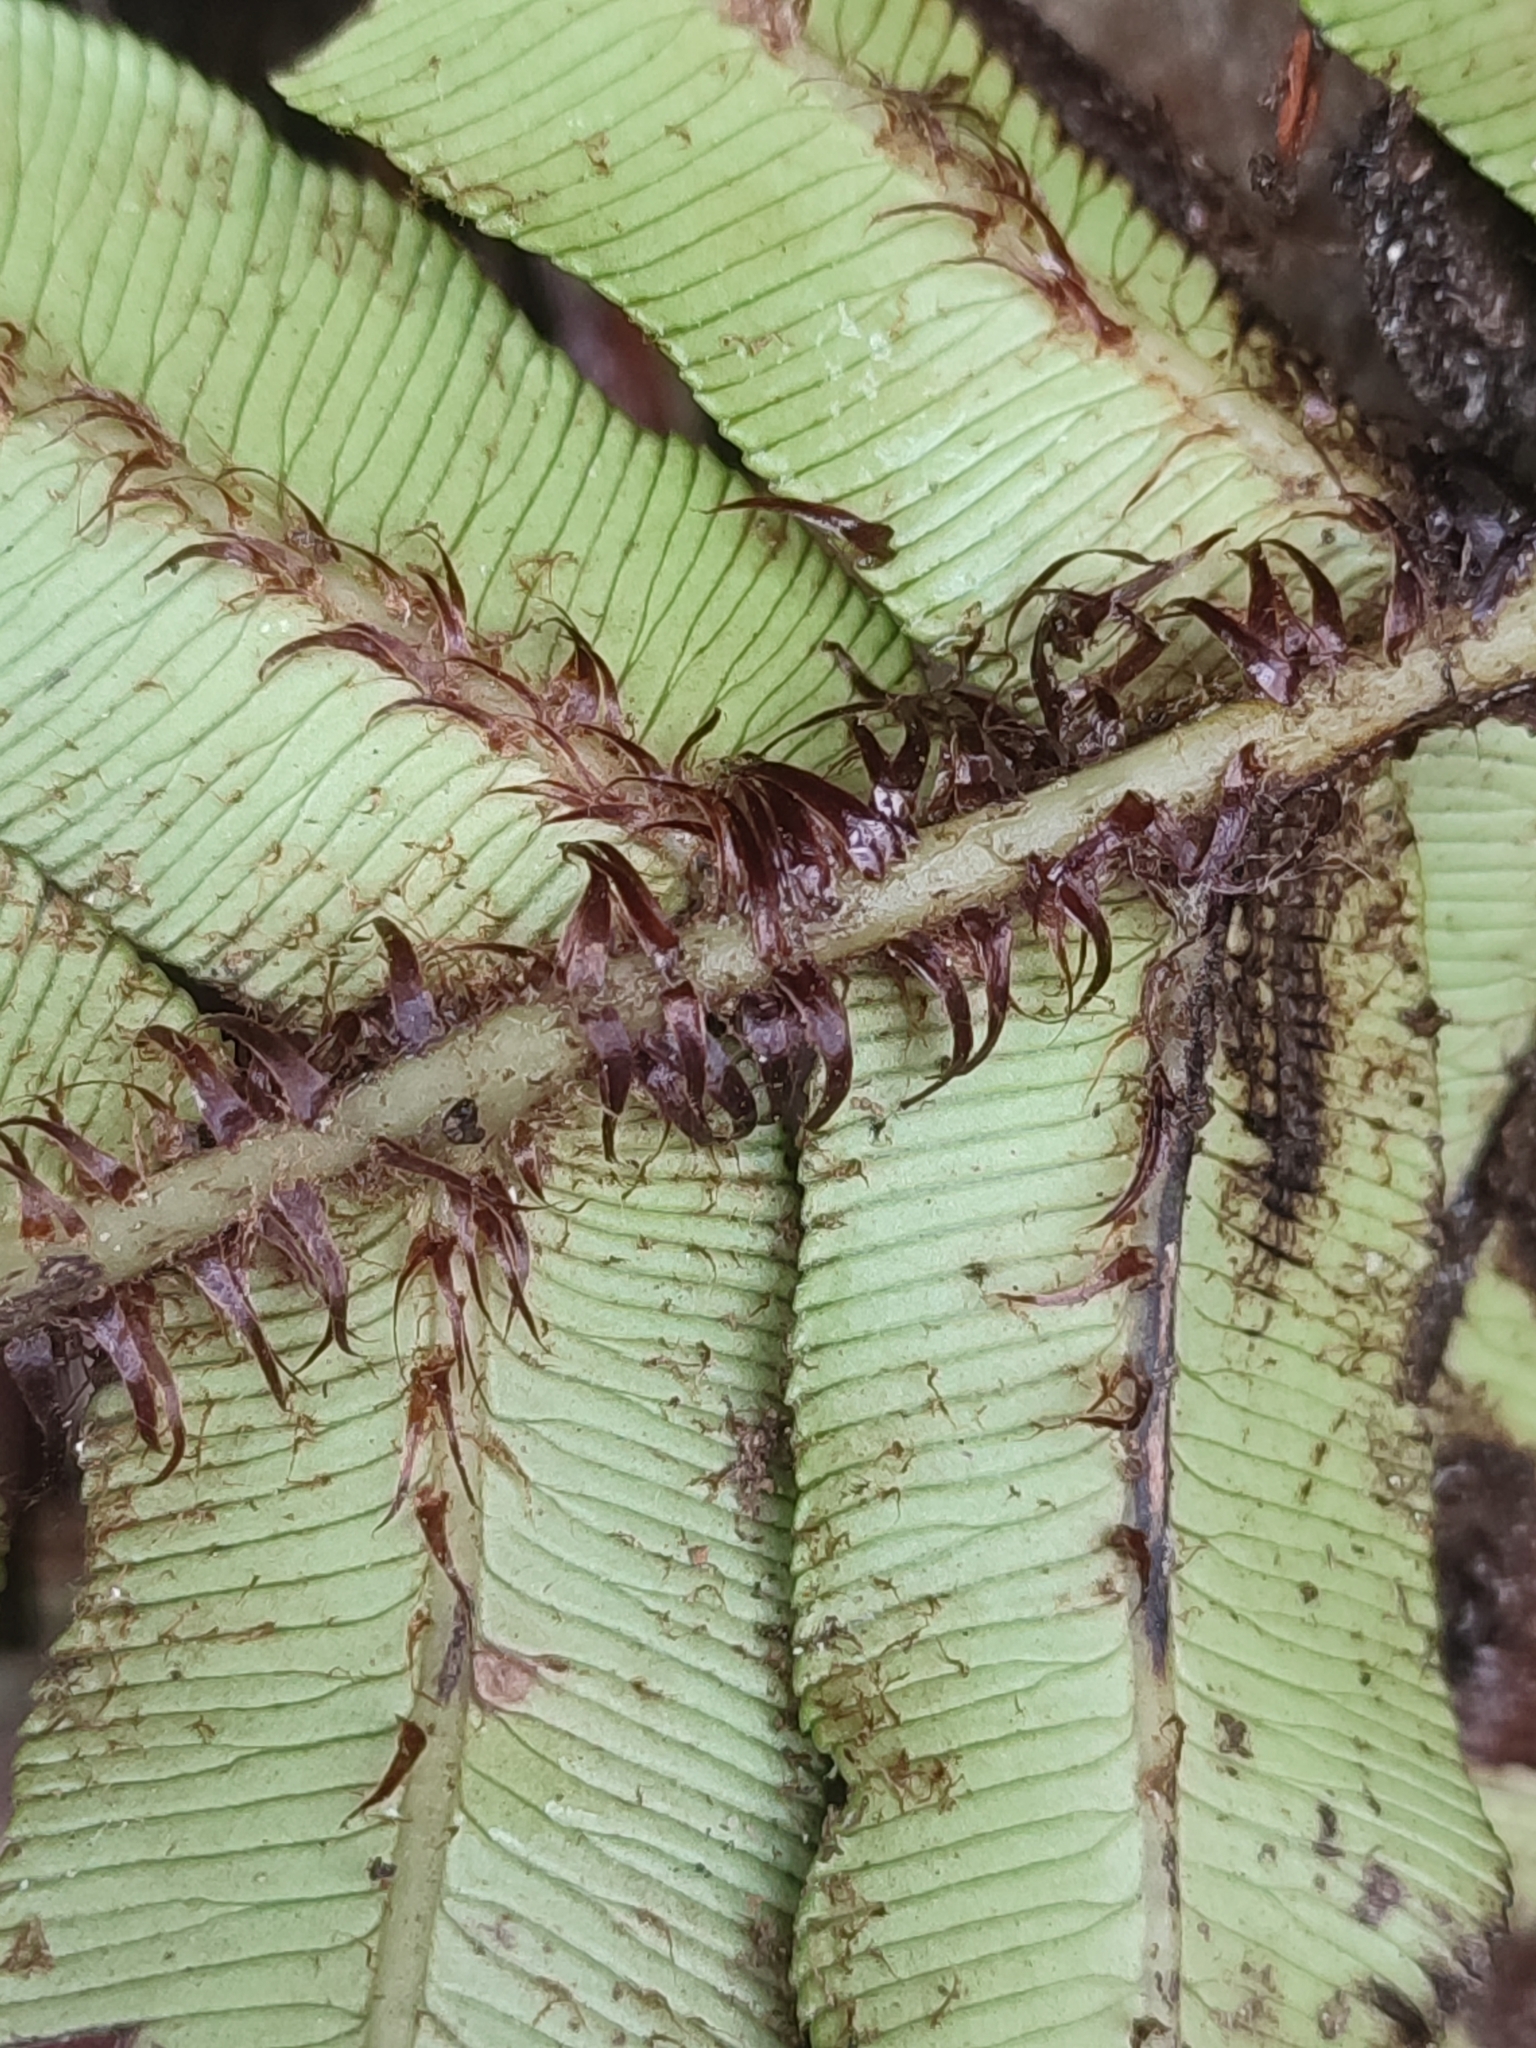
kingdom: Plantae
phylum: Tracheophyta
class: Polypodiopsida
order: Polypodiales
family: Blechnaceae
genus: Parablechnum
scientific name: Parablechnum wattsii
